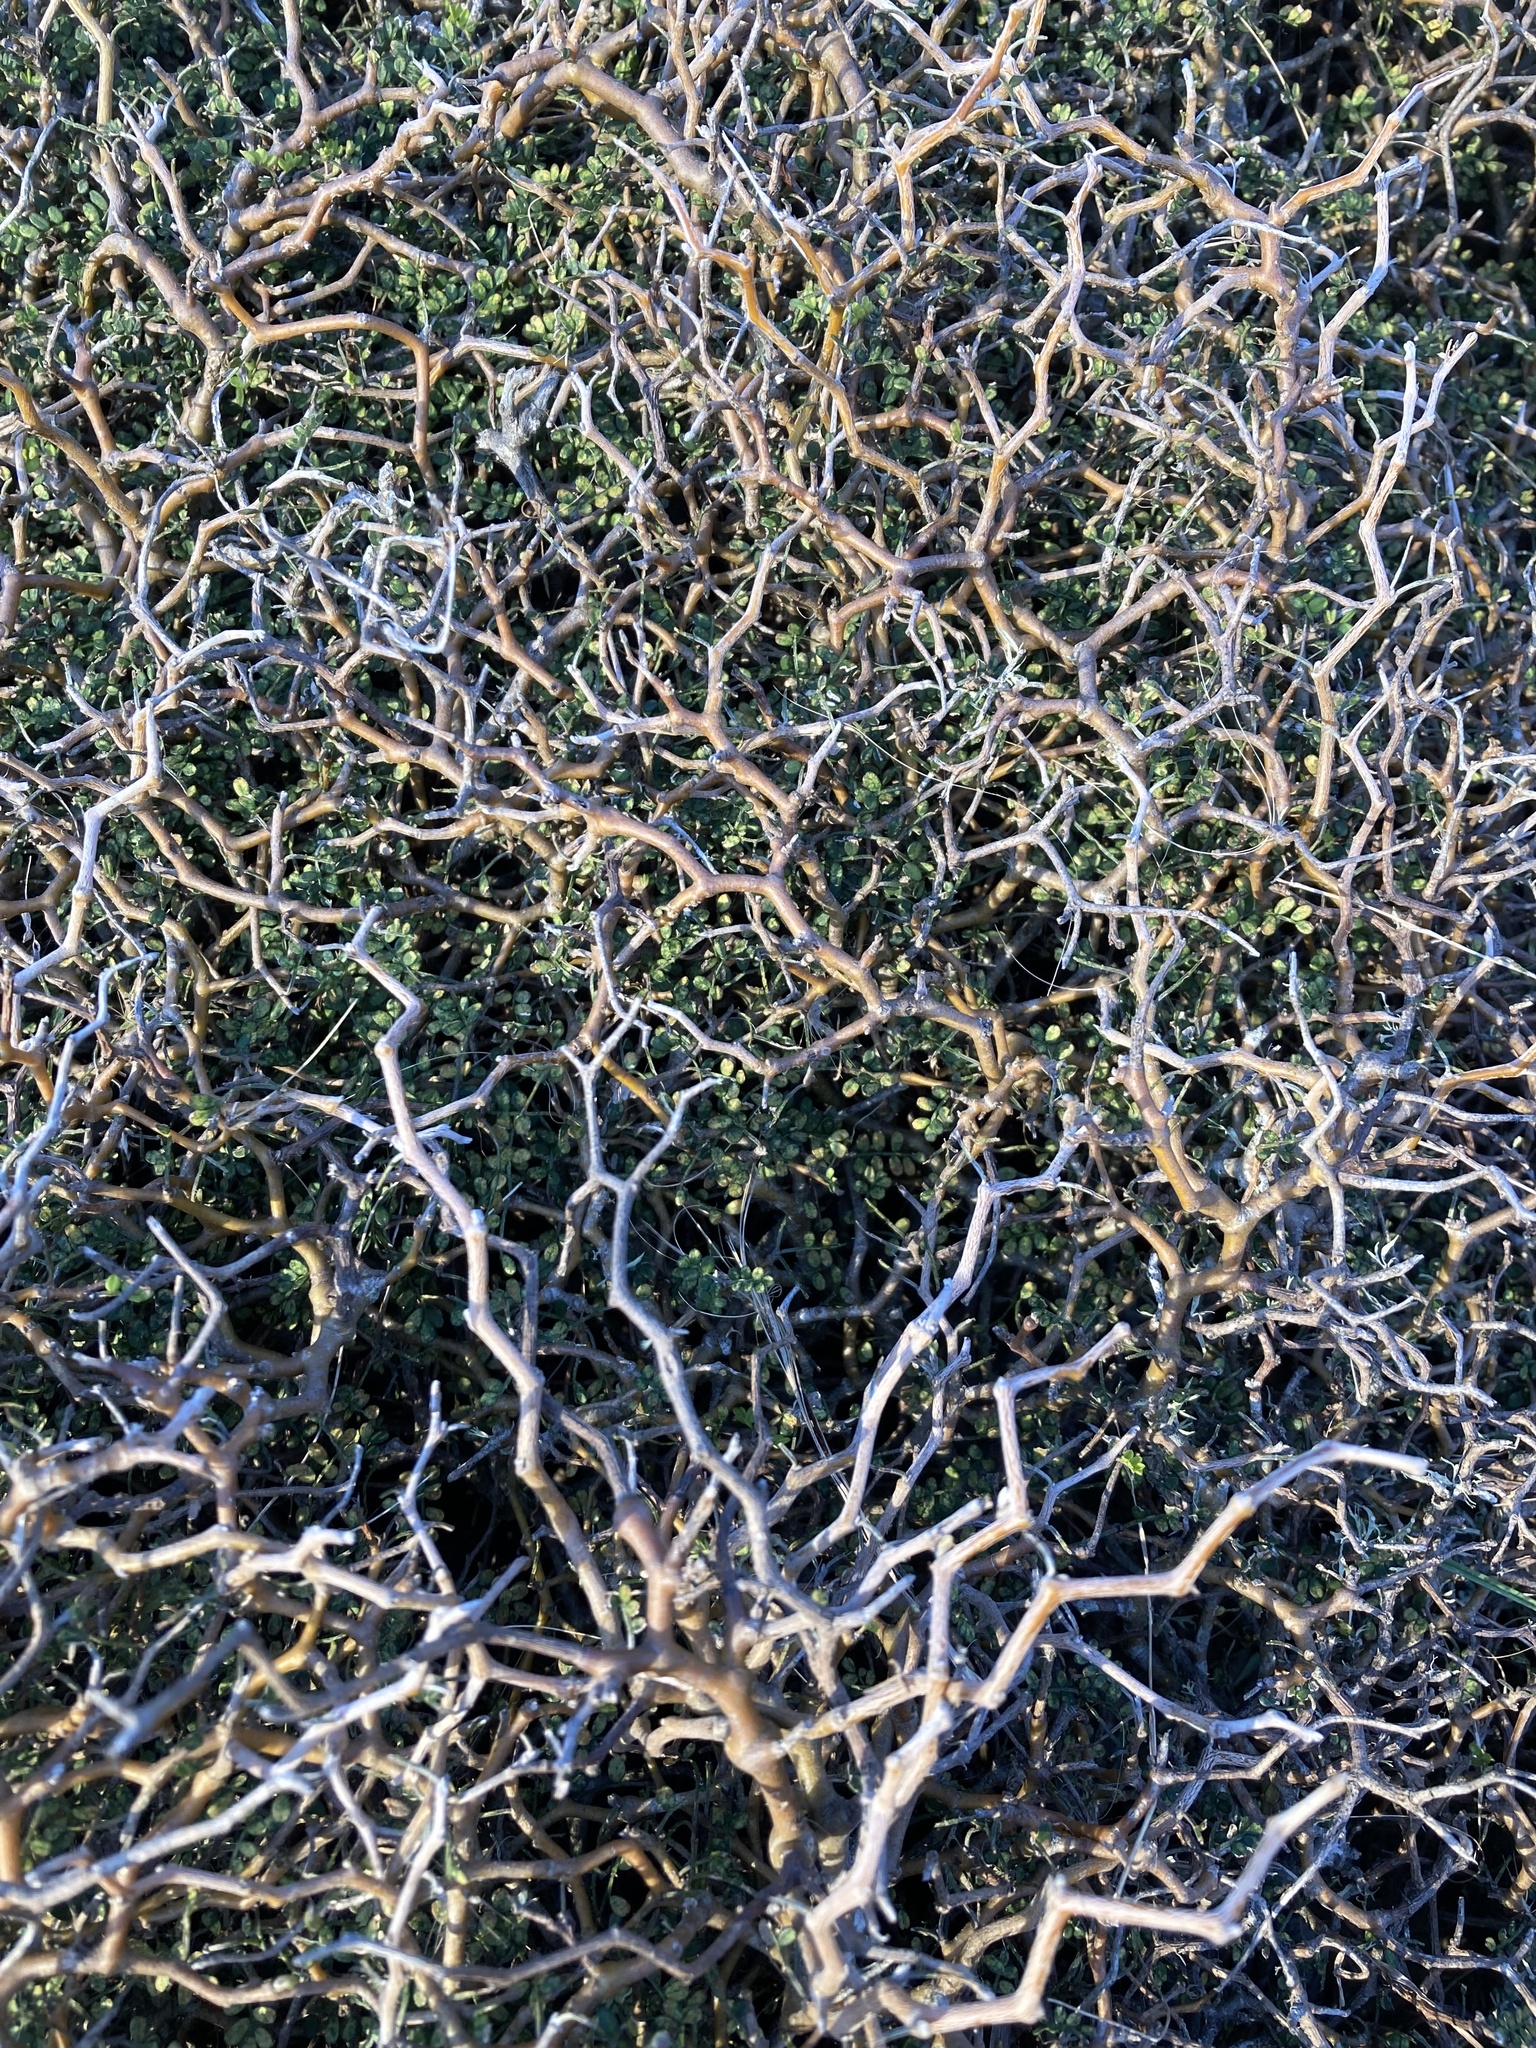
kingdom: Plantae
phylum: Tracheophyta
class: Magnoliopsida
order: Fabales
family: Fabaceae
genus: Sophora
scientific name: Sophora prostrata
